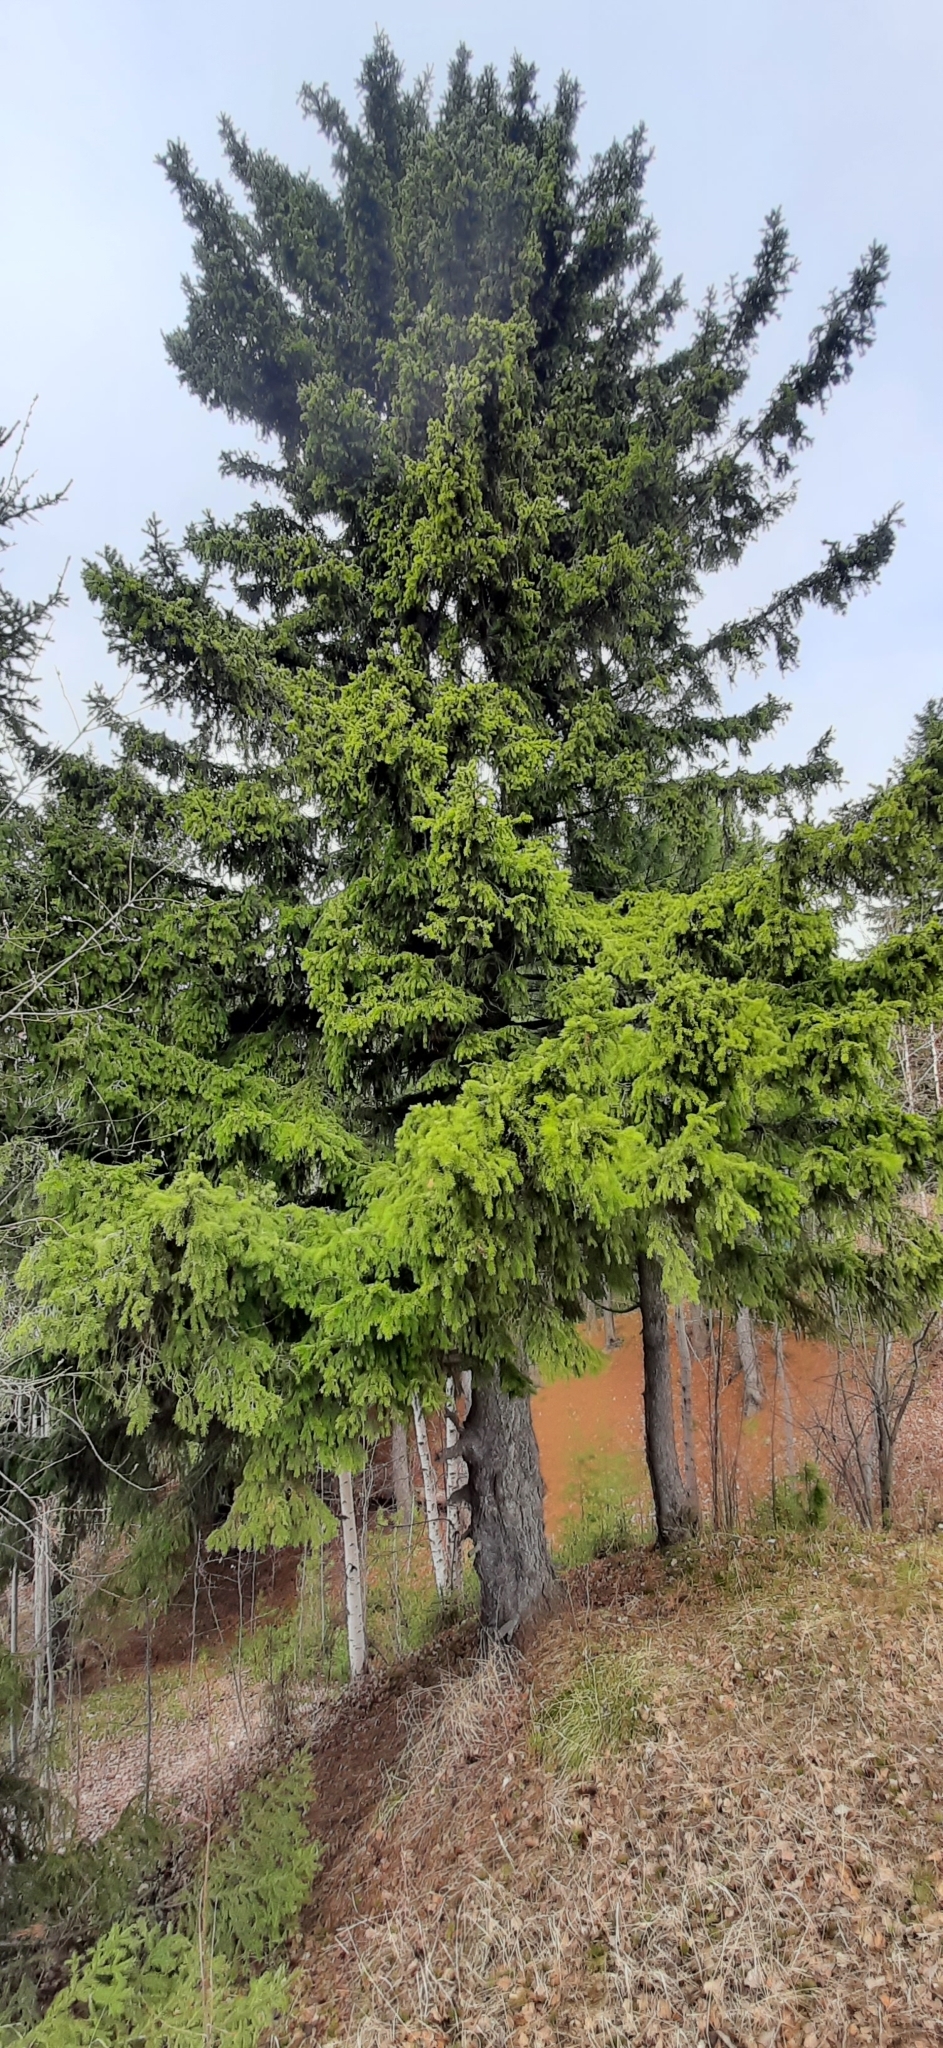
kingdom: Plantae
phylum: Tracheophyta
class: Pinopsida
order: Pinales
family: Pinaceae
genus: Picea
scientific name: Picea obovata
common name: Siberian spruce
